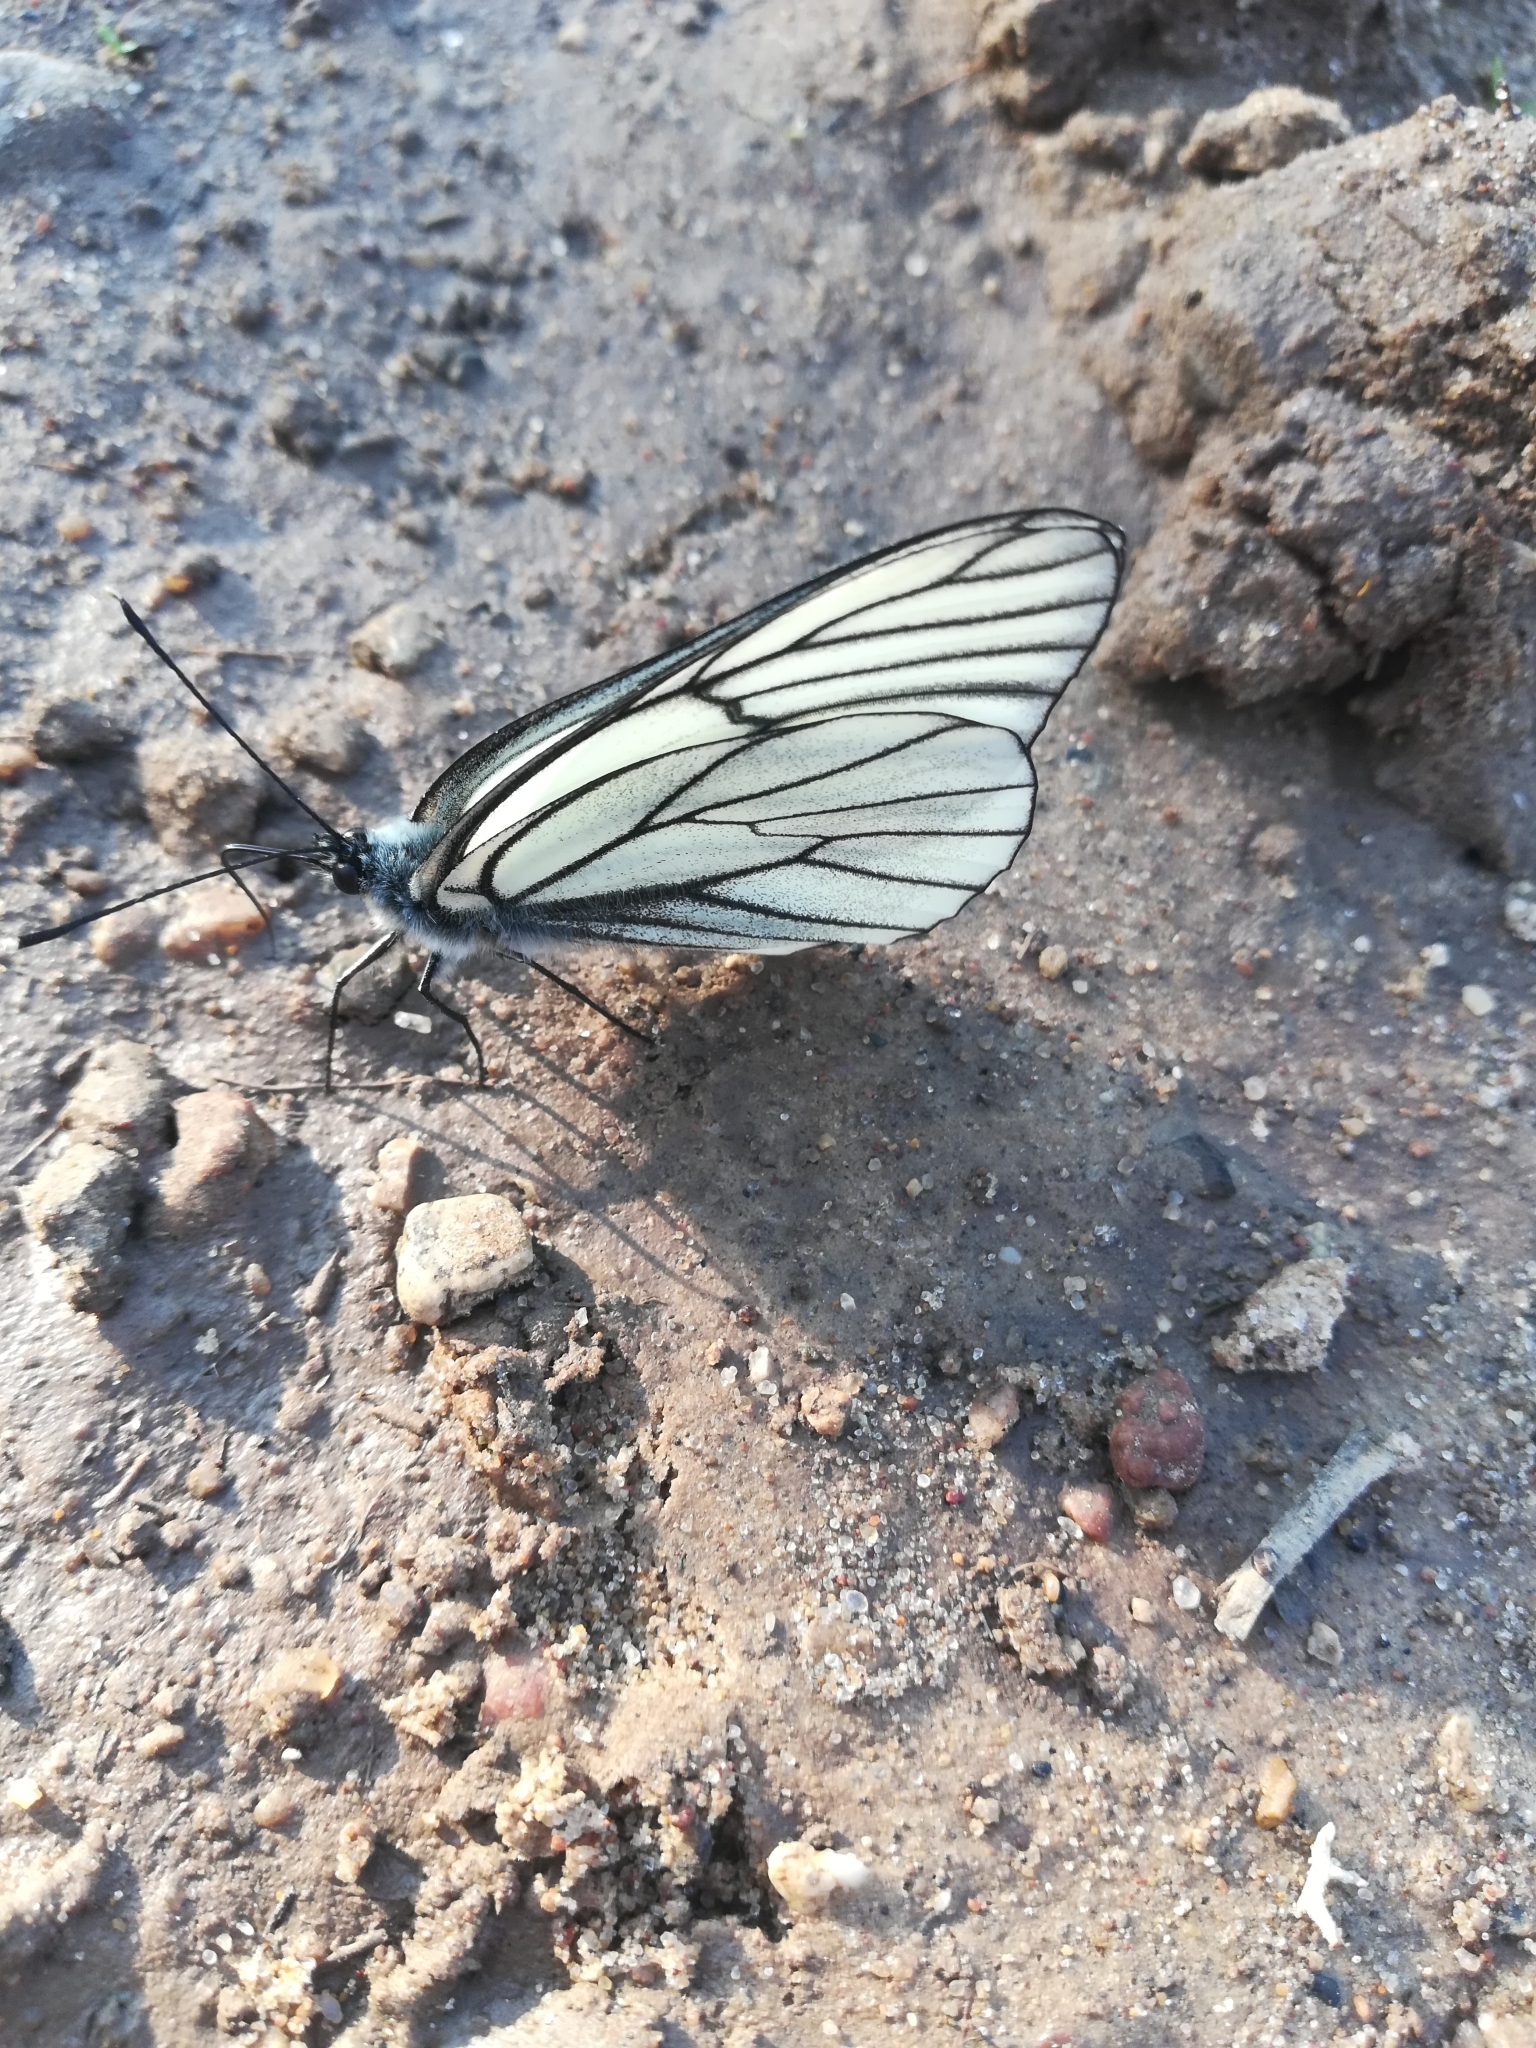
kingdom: Animalia
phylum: Arthropoda
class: Insecta
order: Lepidoptera
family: Pieridae
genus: Aporia
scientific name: Aporia crataegi
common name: Black-veined white
